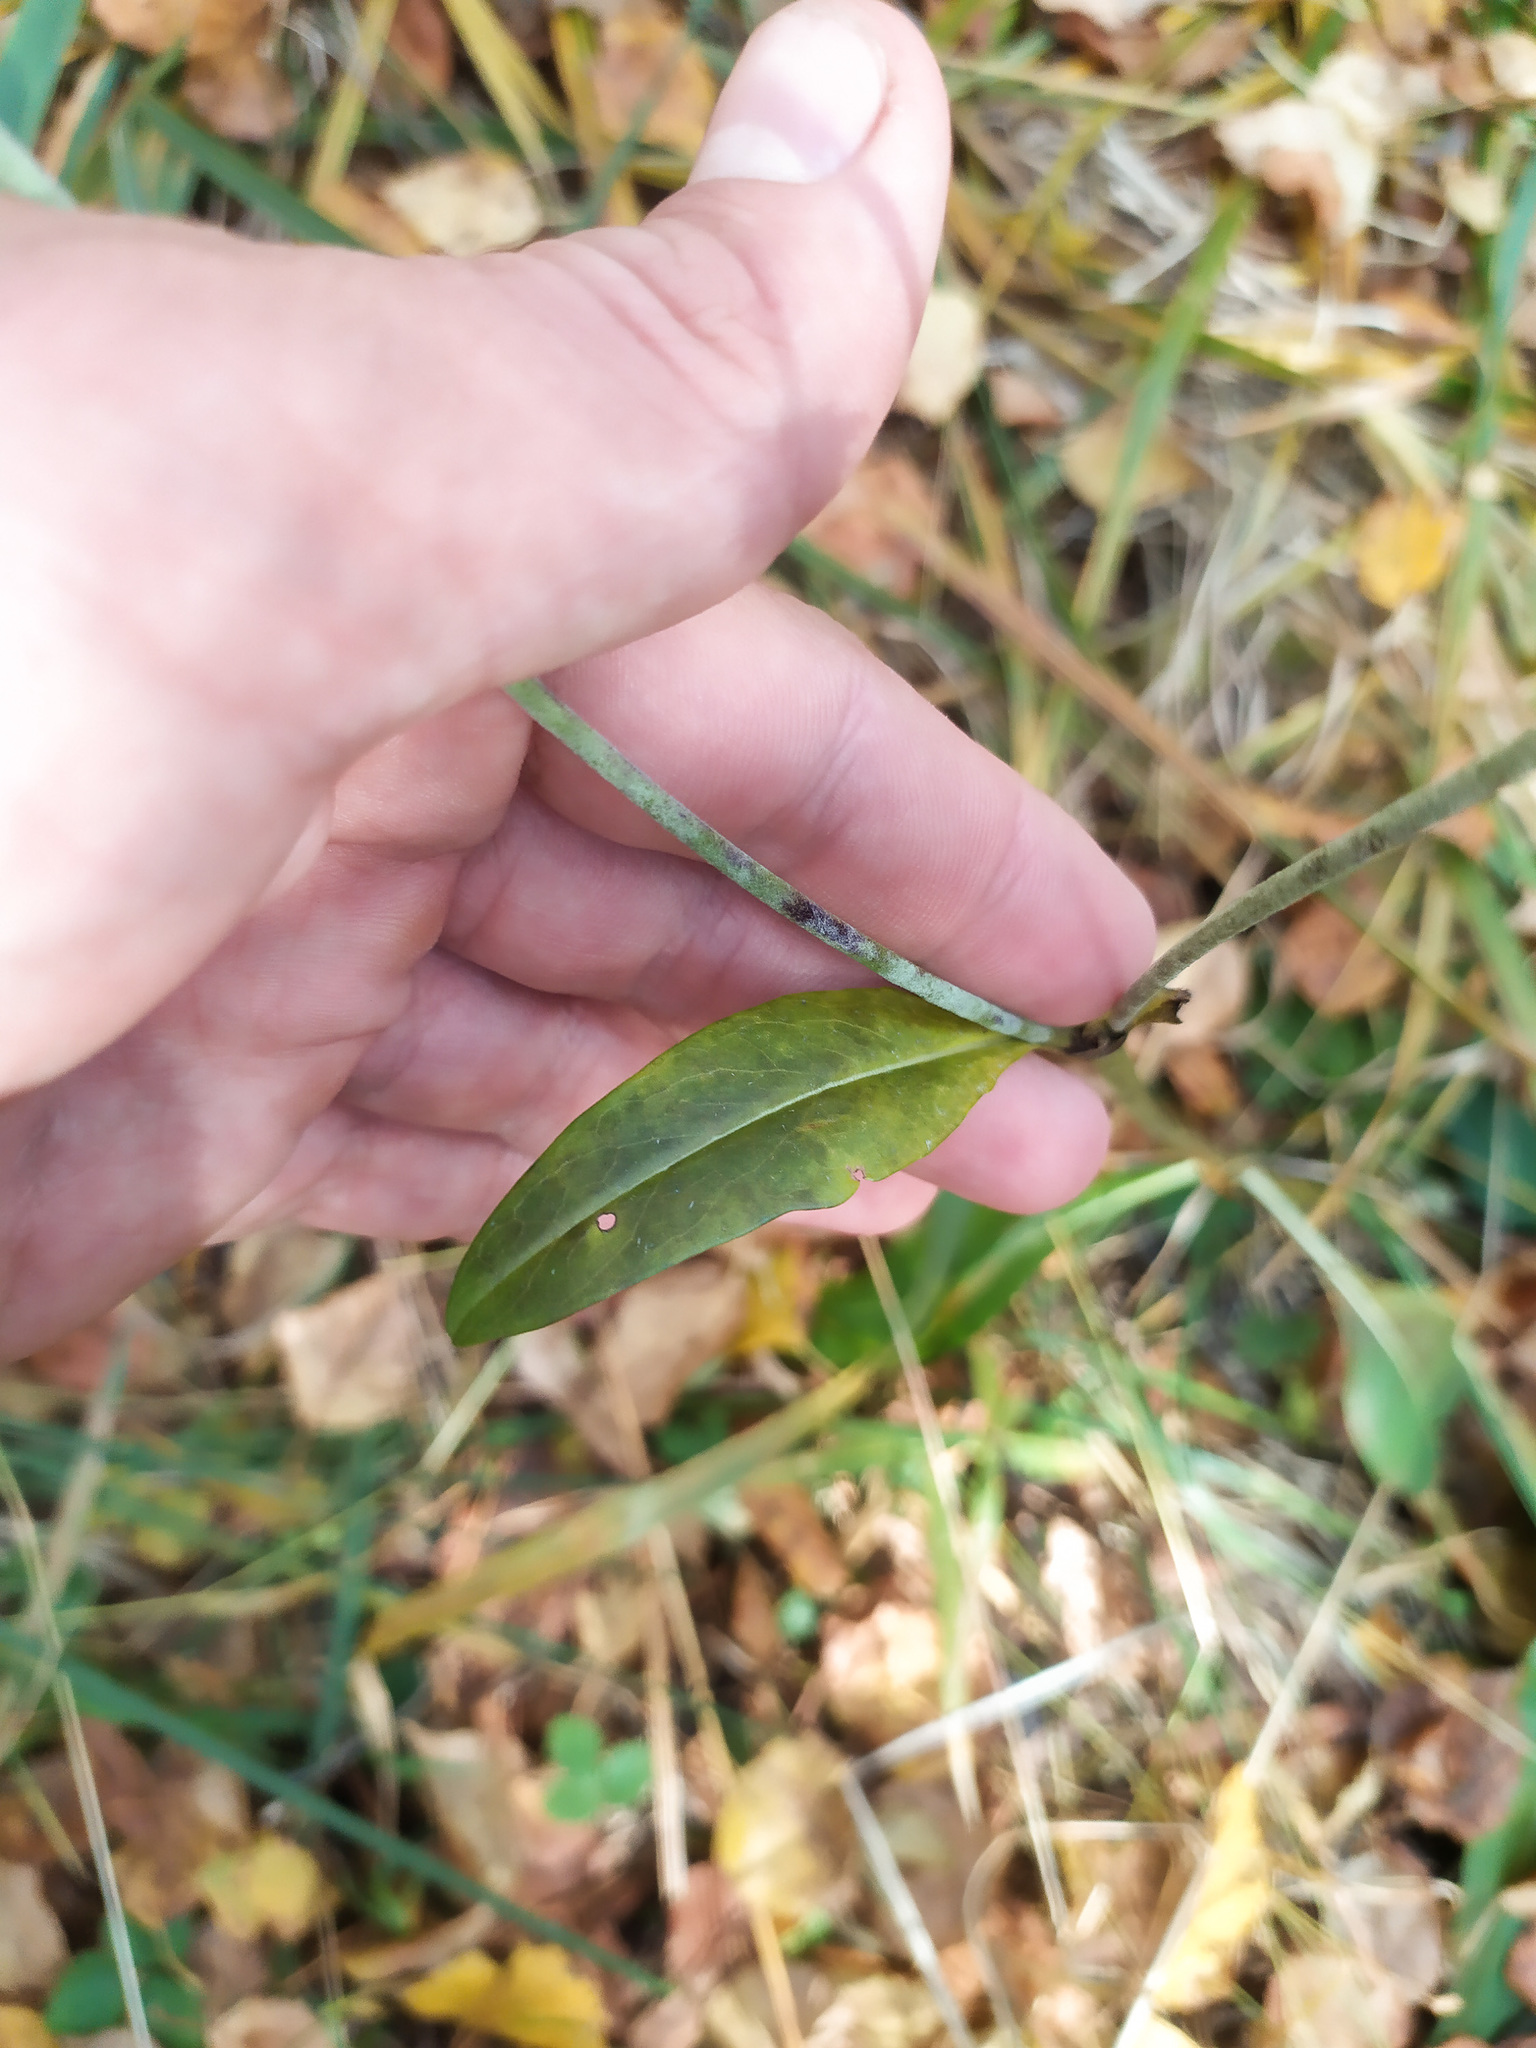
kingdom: Plantae
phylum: Tracheophyta
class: Magnoliopsida
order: Dipsacales
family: Caprifoliaceae
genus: Succisa
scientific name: Succisa pratensis
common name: Devil's-bit
